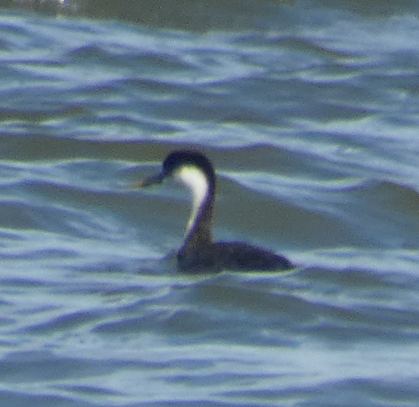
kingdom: Animalia
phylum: Chordata
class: Aves
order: Podicipediformes
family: Podicipedidae
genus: Aechmophorus
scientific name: Aechmophorus occidentalis
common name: Western grebe
